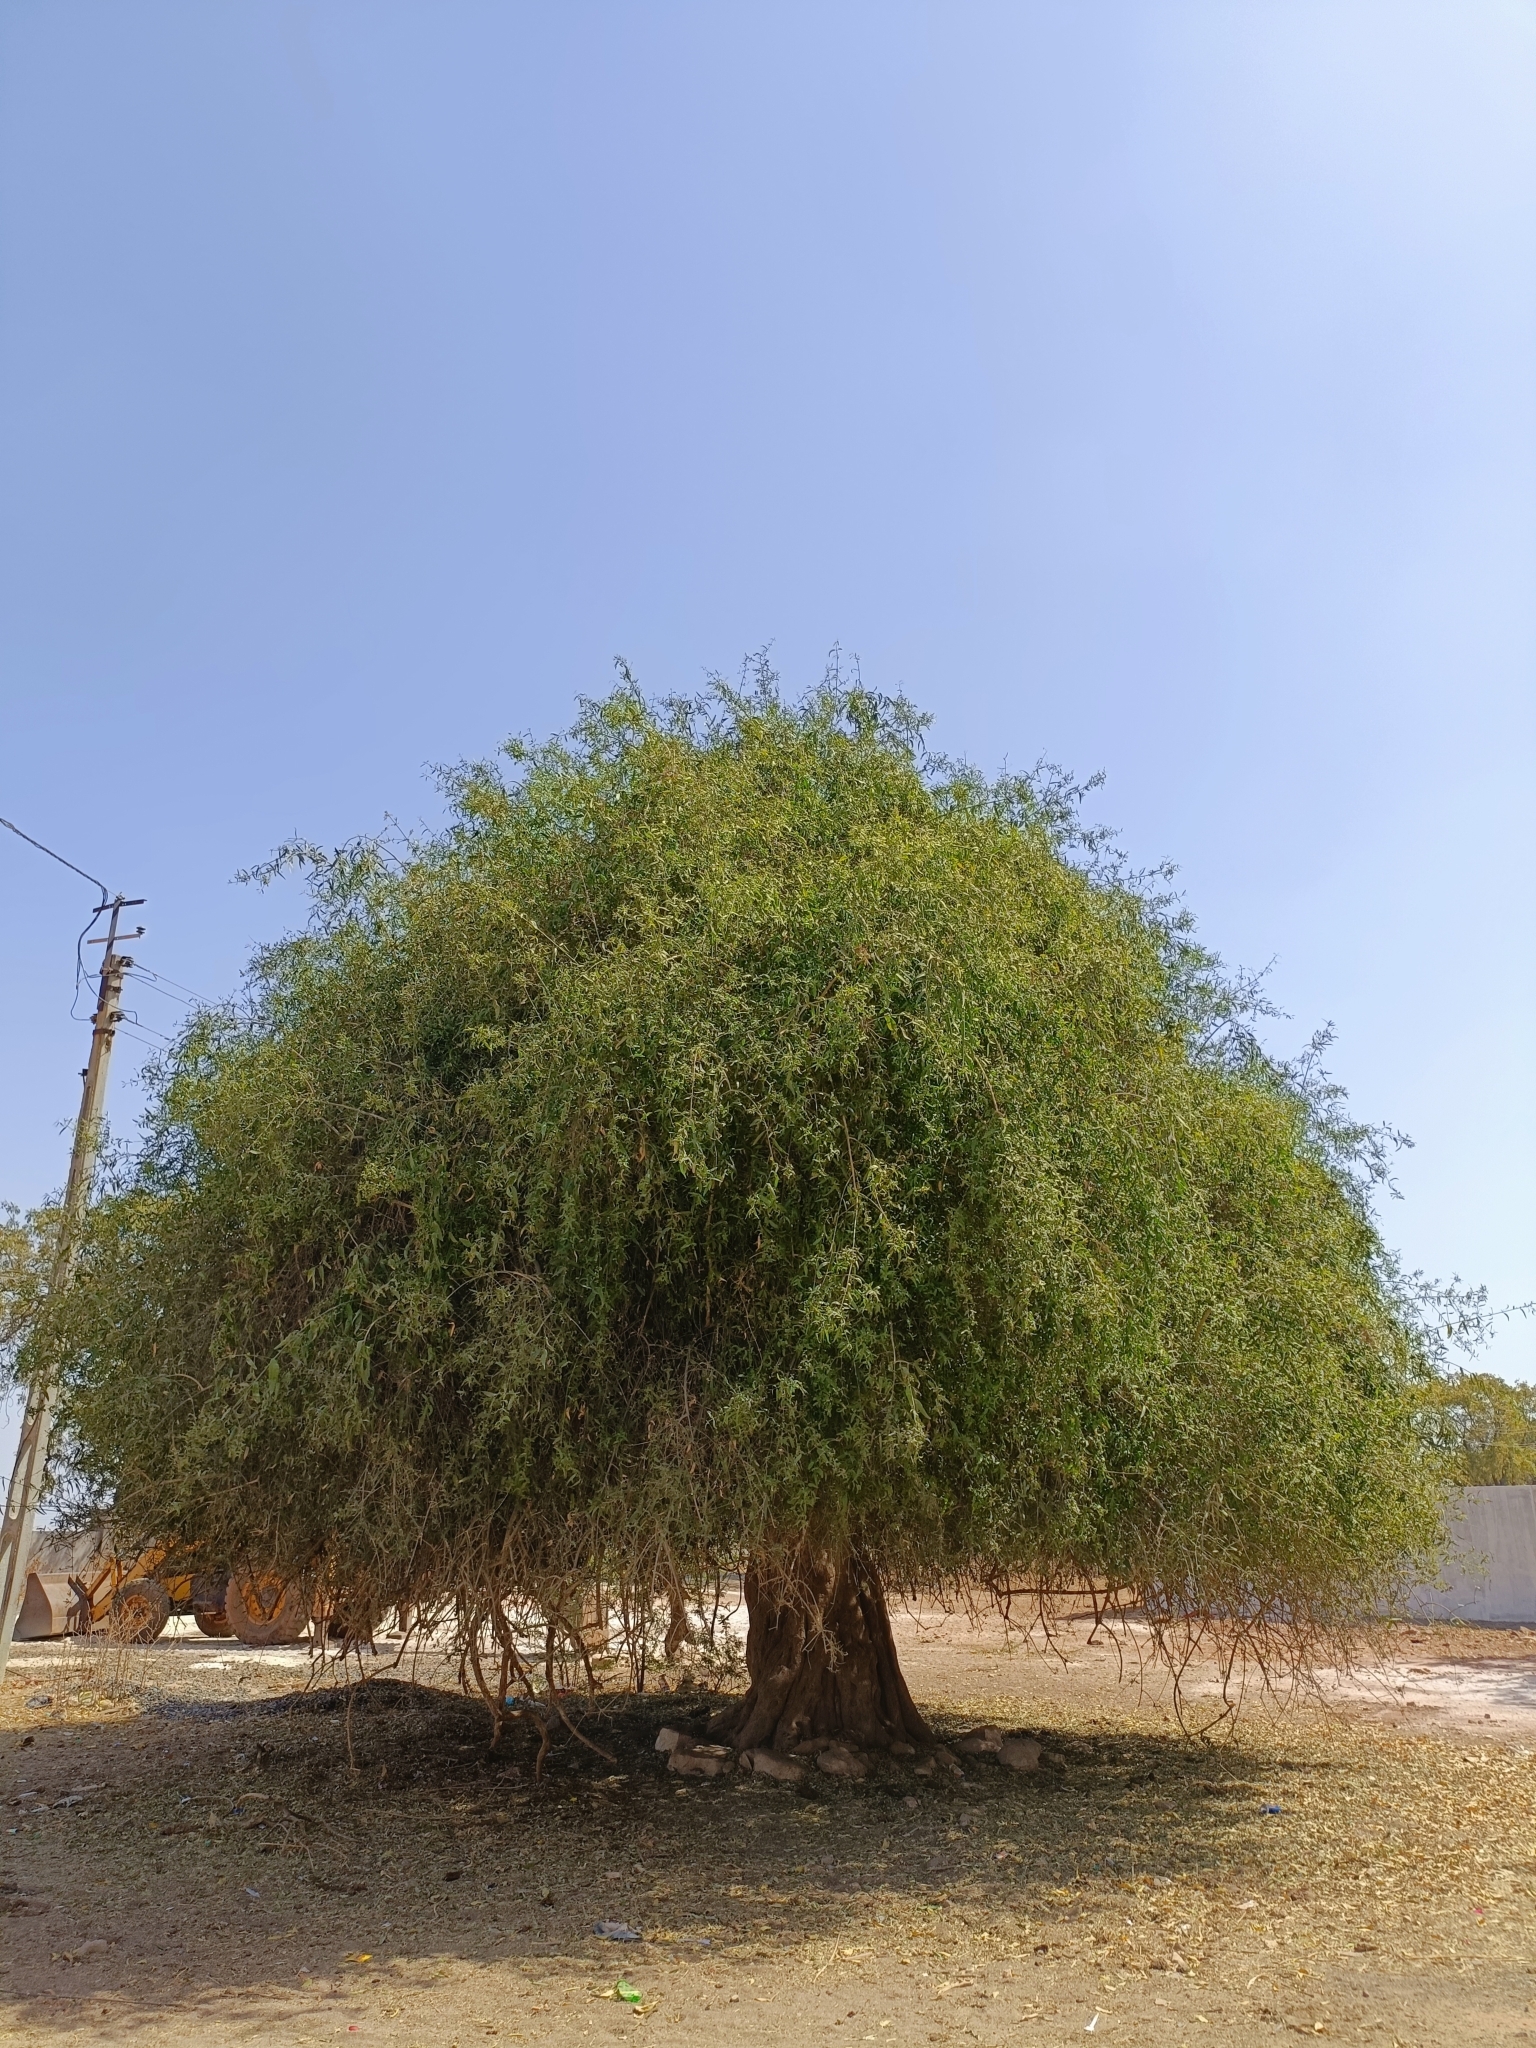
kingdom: Plantae
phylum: Tracheophyta
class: Magnoliopsida
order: Brassicales
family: Salvadoraceae
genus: Salvadora
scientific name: Salvadora persica
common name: Toothbrushtree
